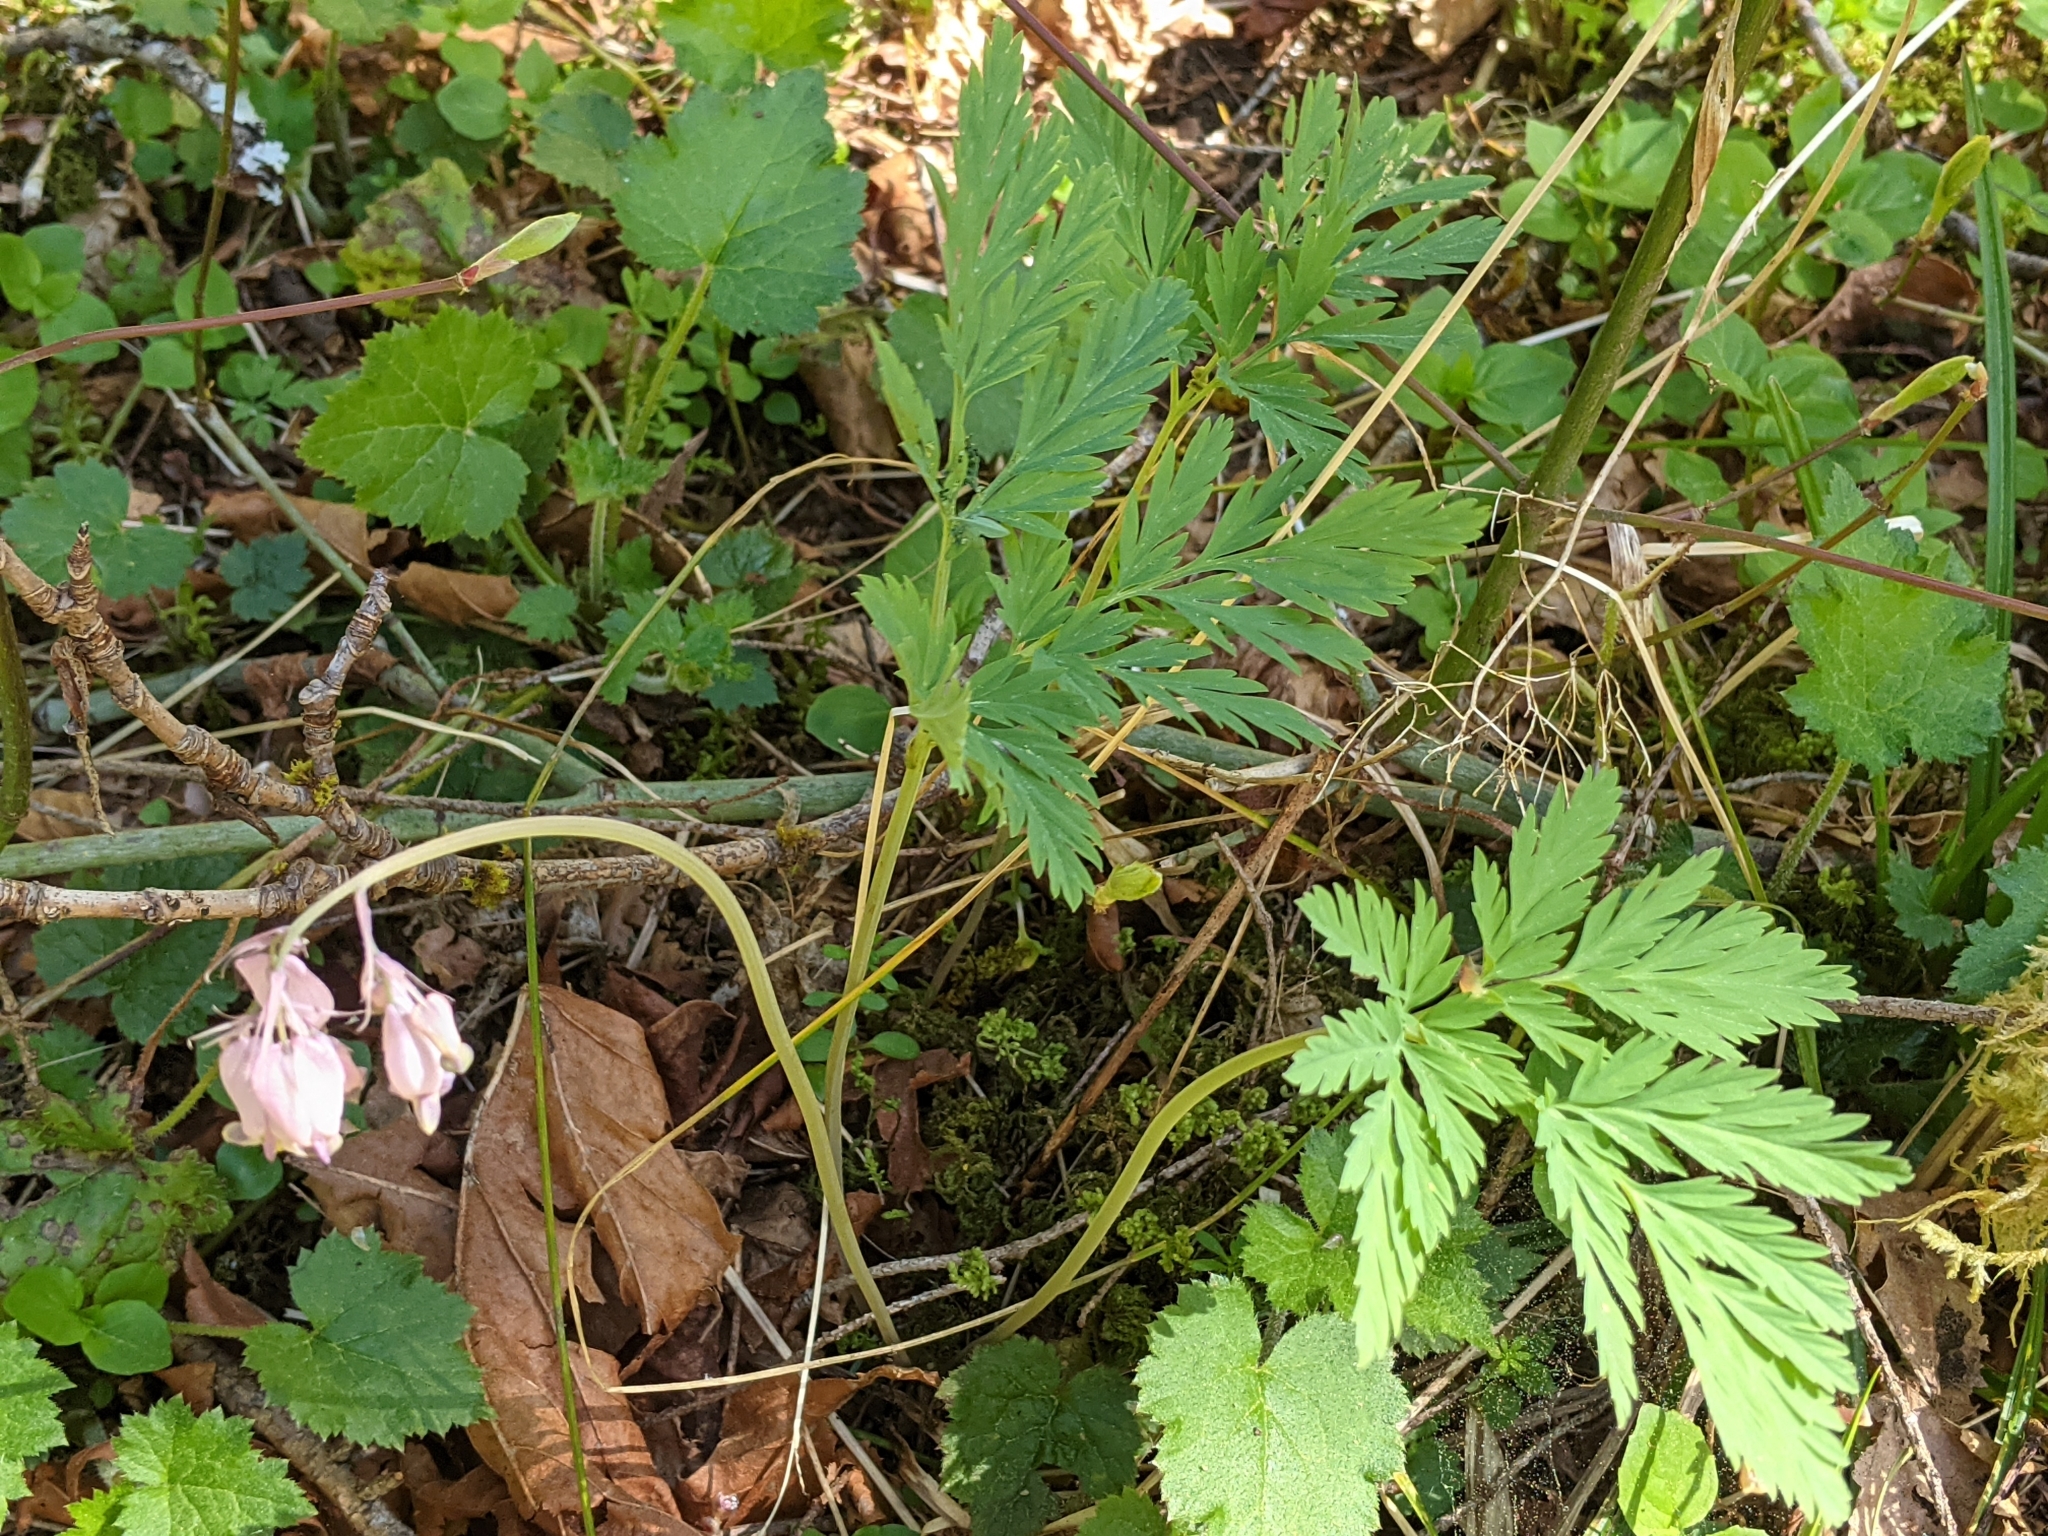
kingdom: Plantae
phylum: Tracheophyta
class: Magnoliopsida
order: Ranunculales
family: Papaveraceae
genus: Dicentra
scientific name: Dicentra formosa
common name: Bleeding-heart
